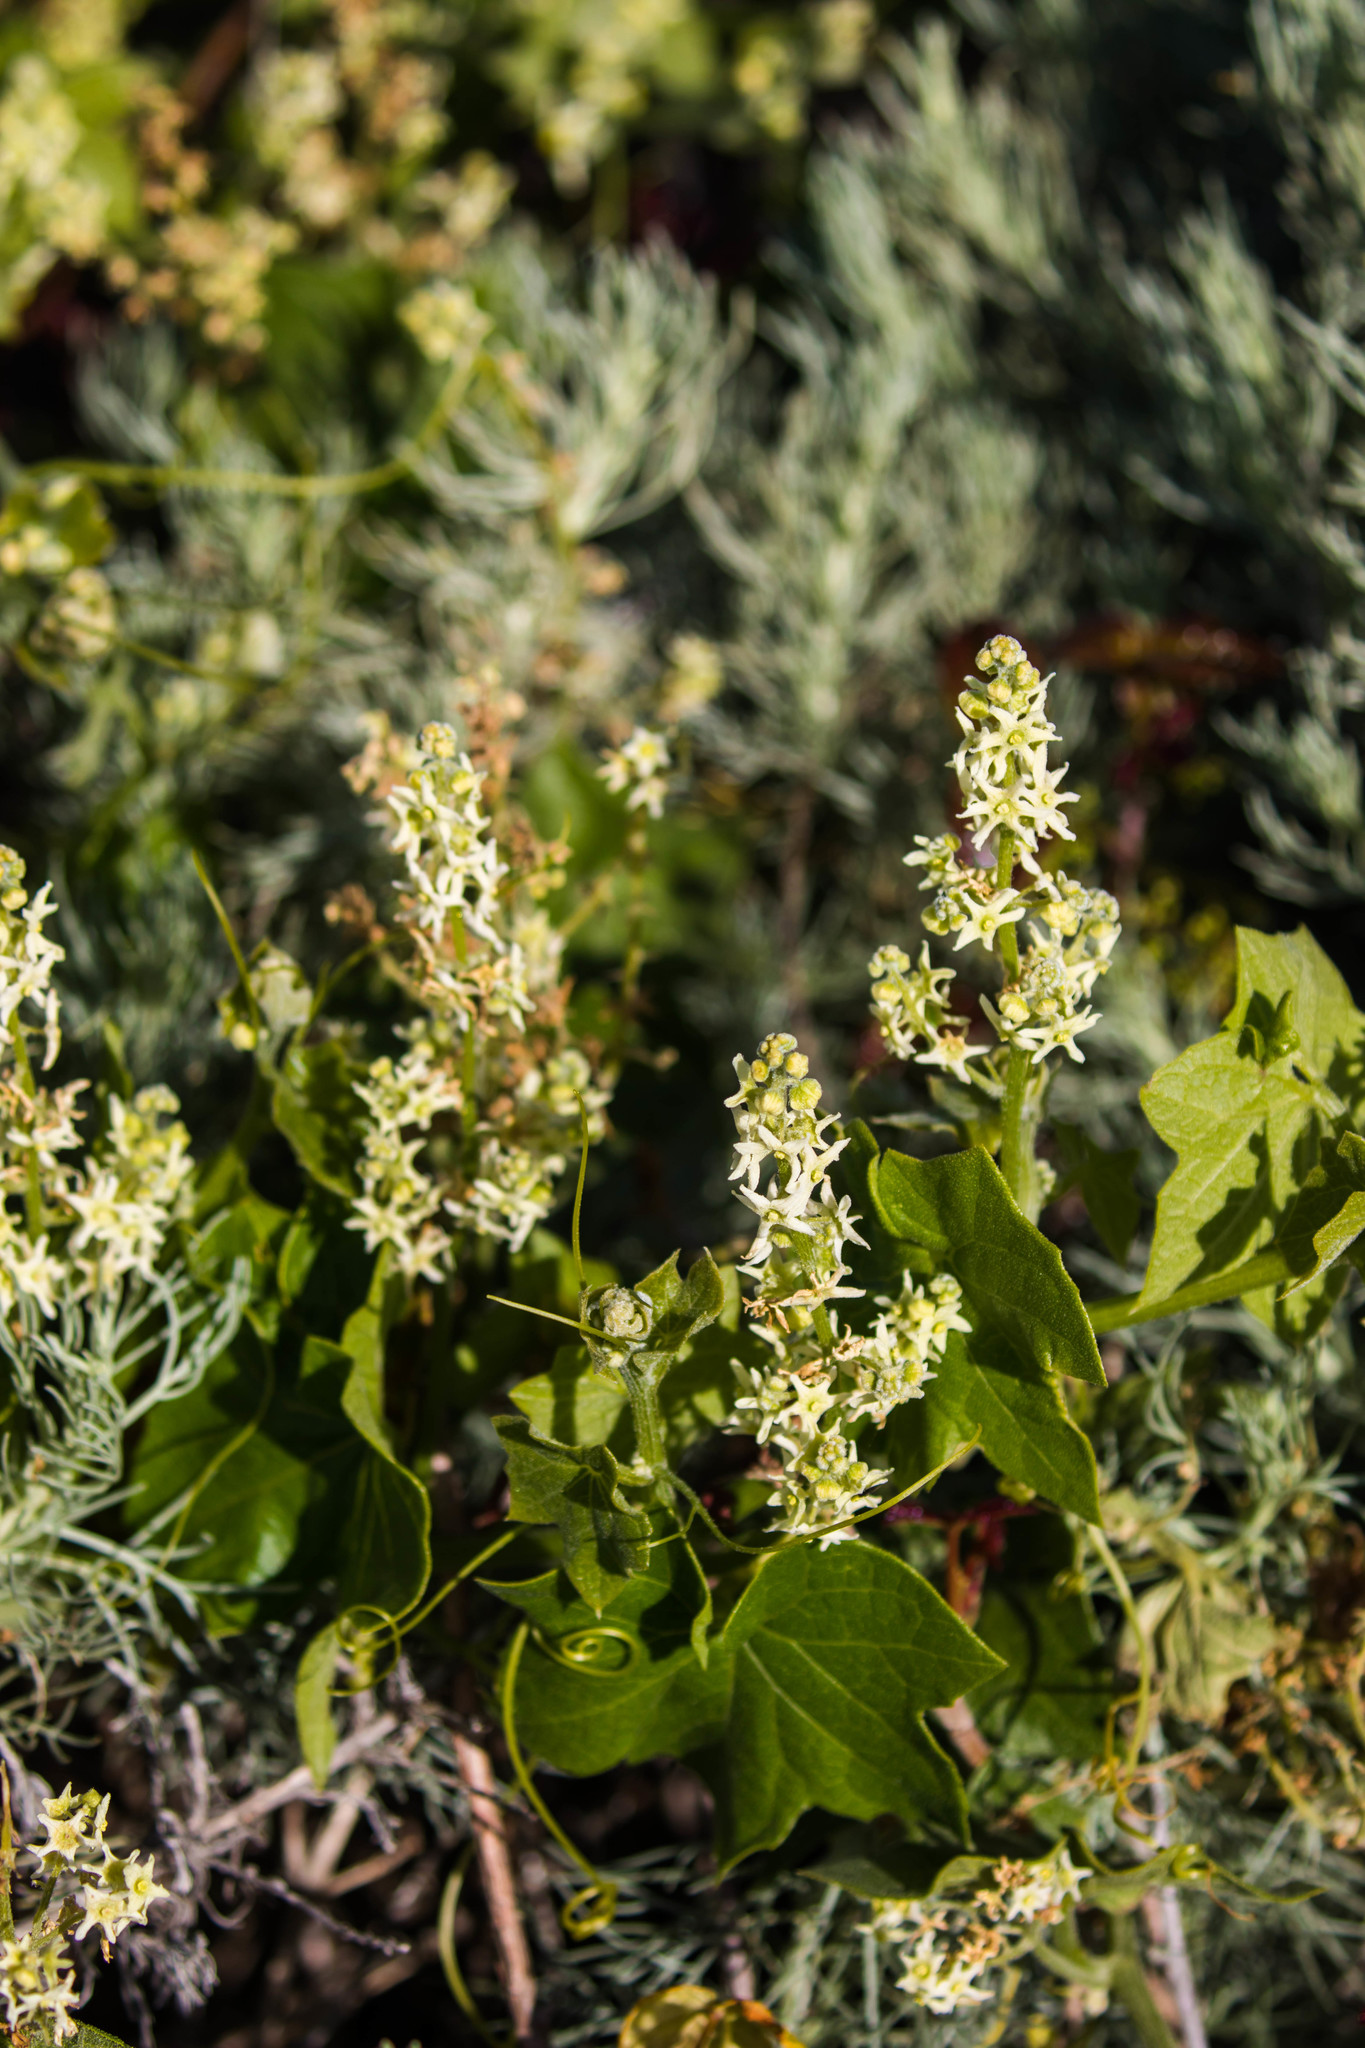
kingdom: Plantae
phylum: Tracheophyta
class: Magnoliopsida
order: Cucurbitales
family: Cucurbitaceae
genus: Marah
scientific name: Marah fabacea
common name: California manroot
